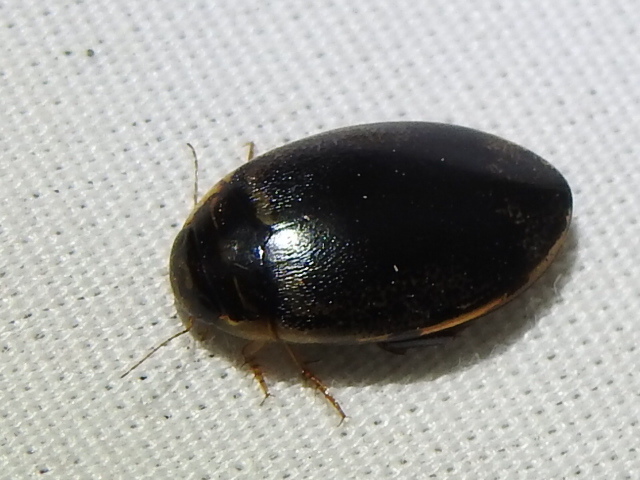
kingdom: Animalia
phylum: Arthropoda
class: Insecta
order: Coleoptera
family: Dytiscidae
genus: Thermonectus
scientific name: Thermonectus basillaris
